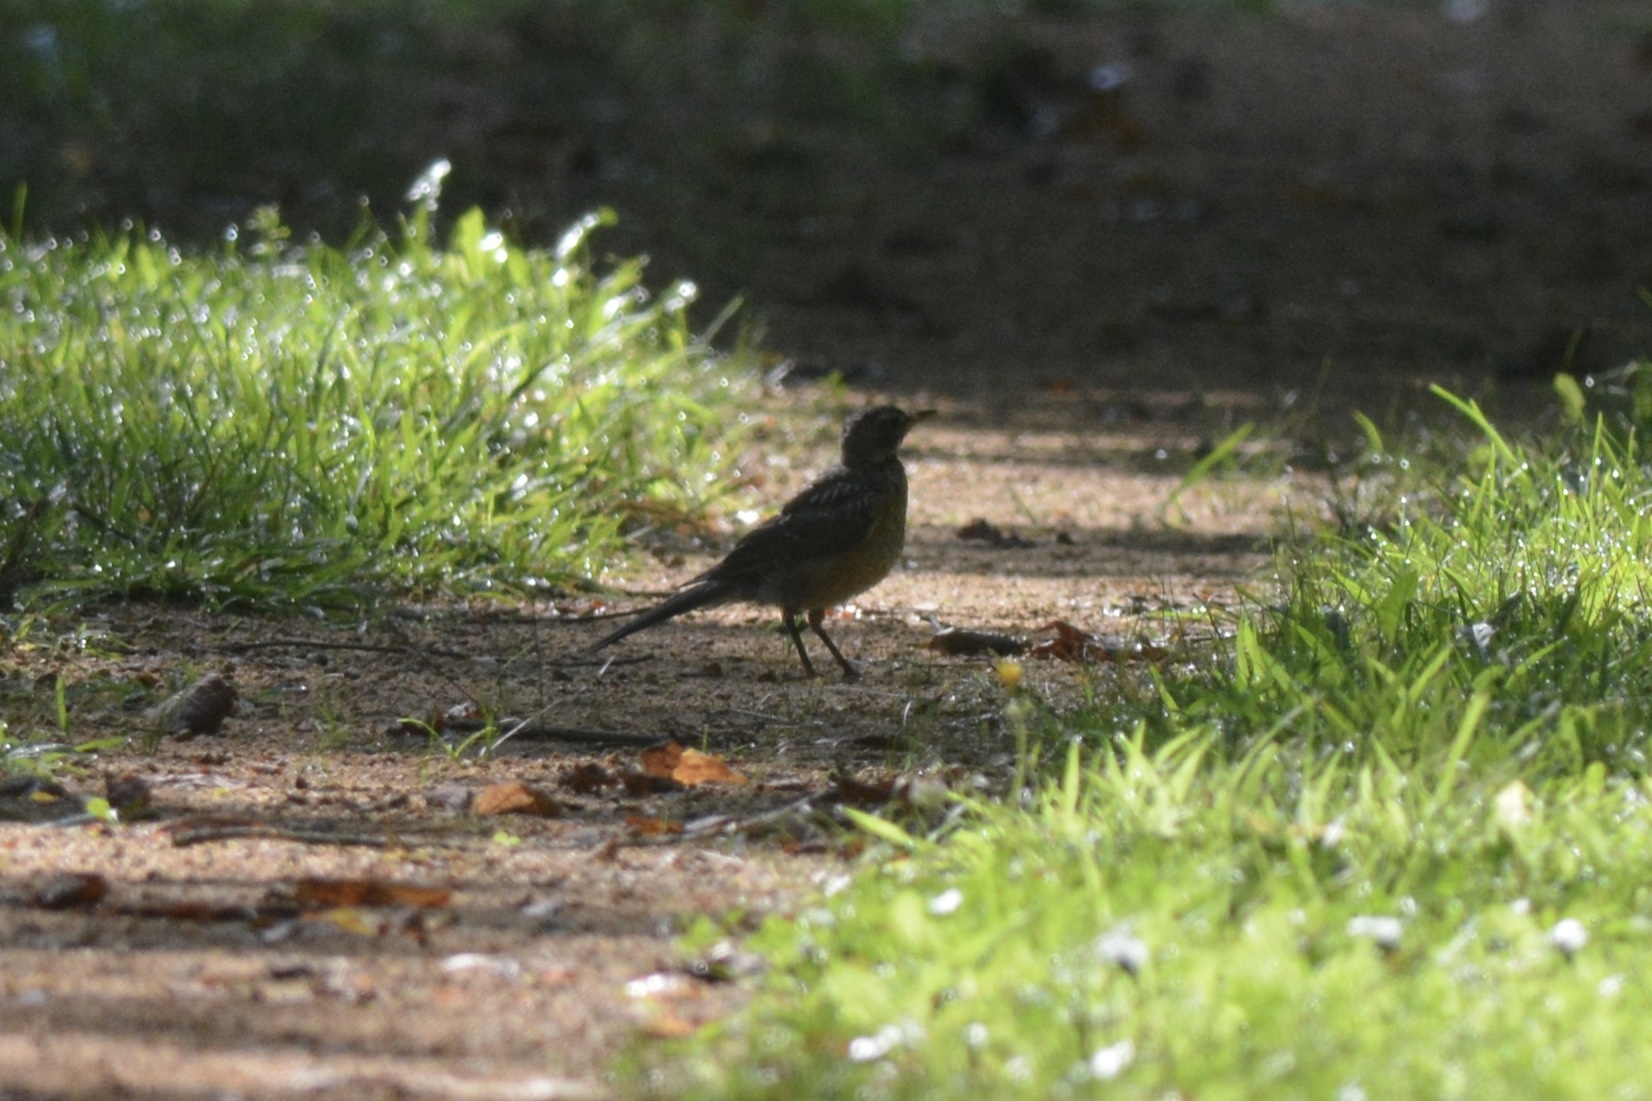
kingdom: Animalia
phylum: Chordata
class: Aves
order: Passeriformes
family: Turdidae
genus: Turdus
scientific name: Turdus migratorius
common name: American robin
